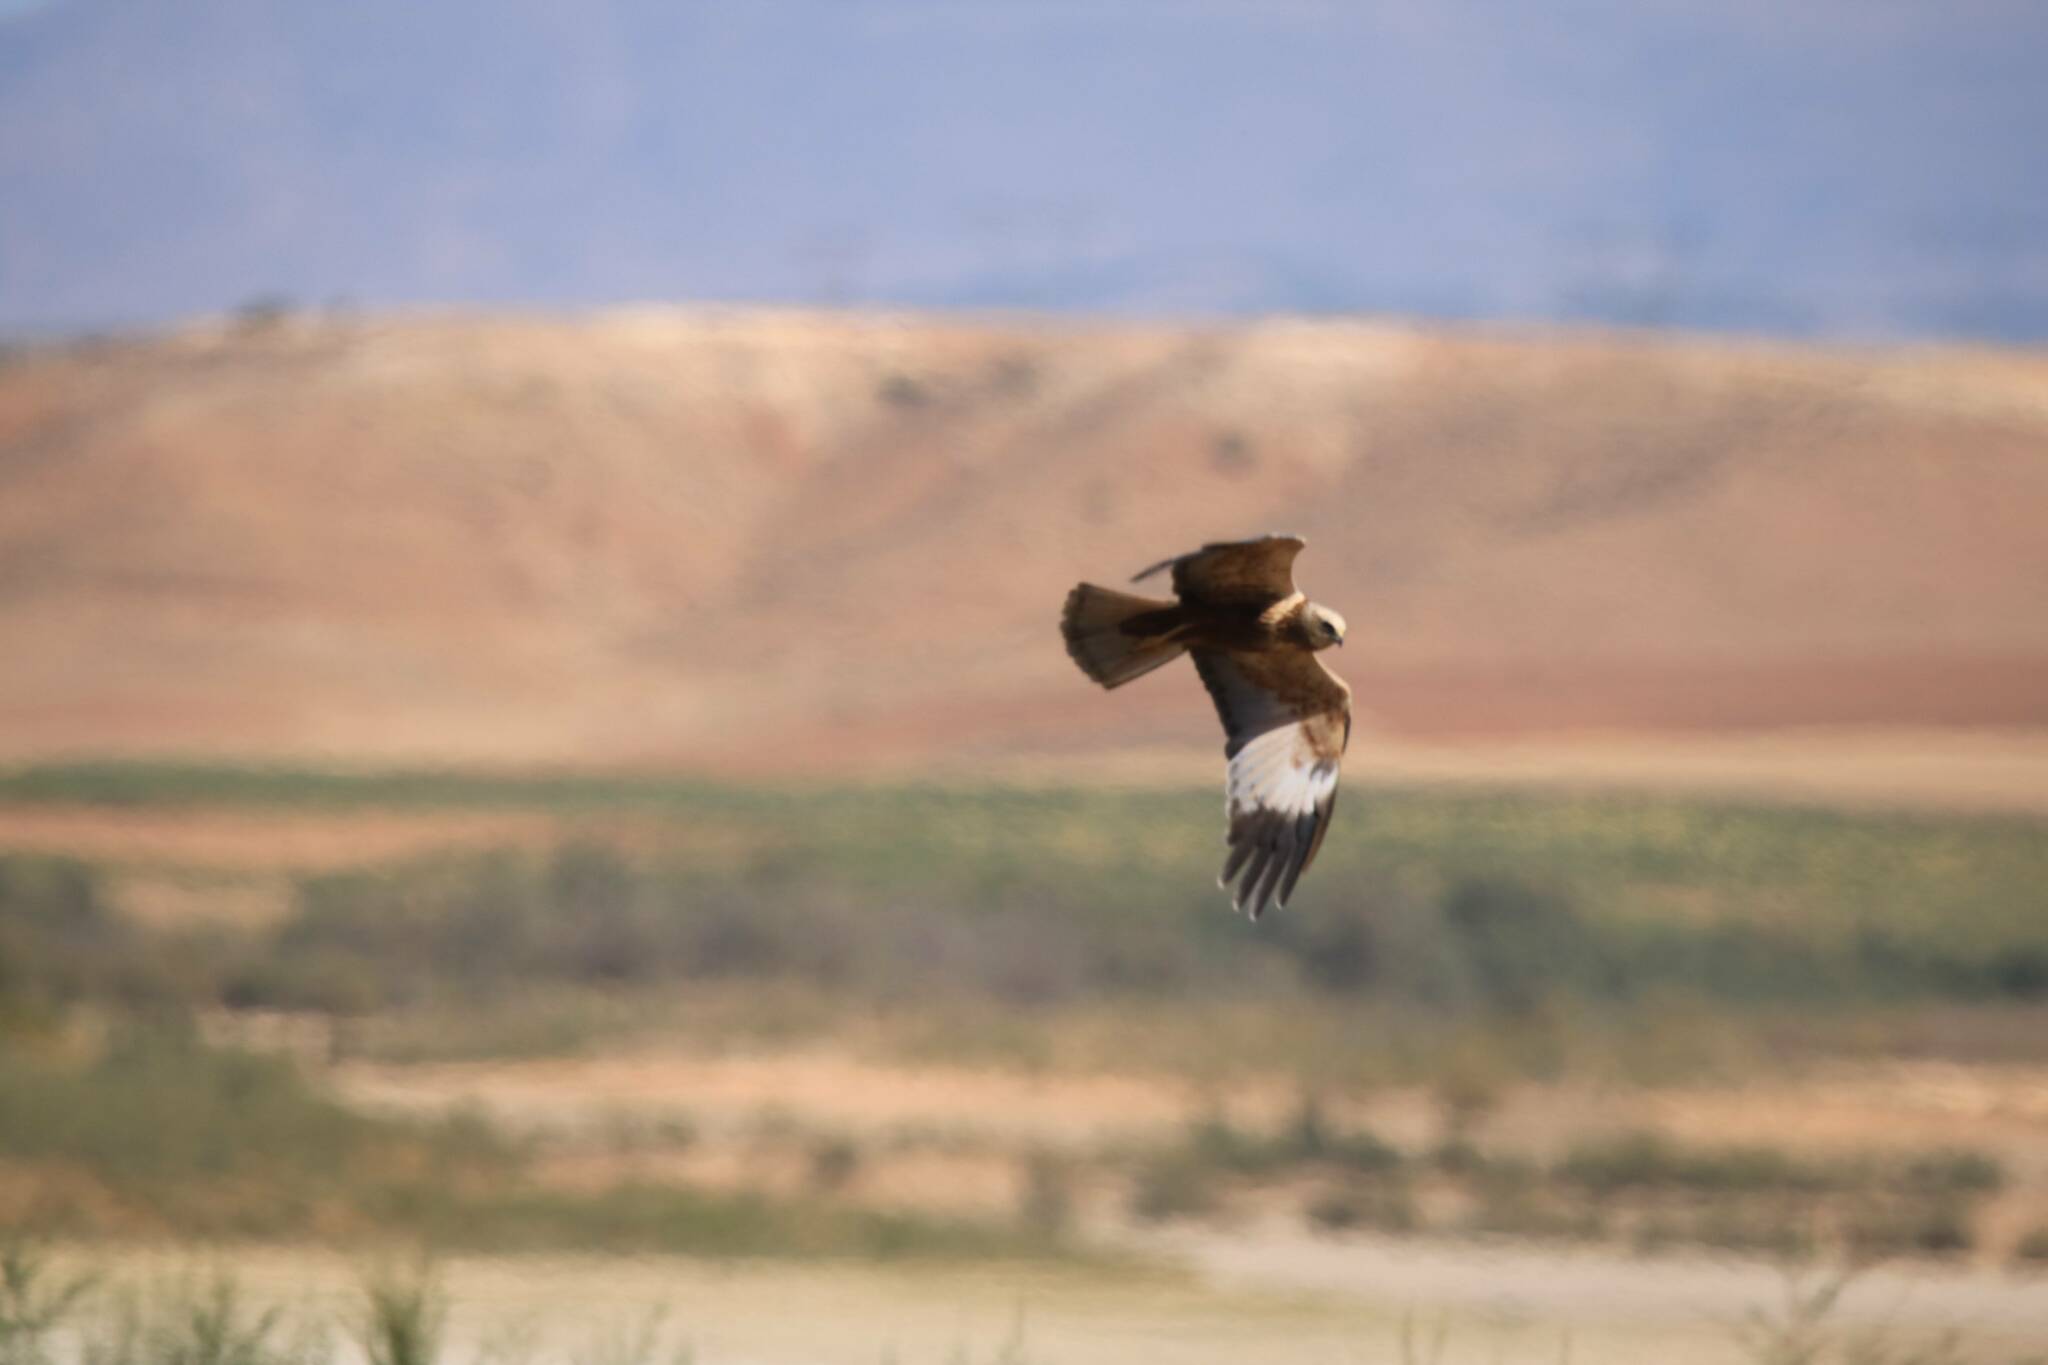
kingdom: Animalia
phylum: Chordata
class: Aves
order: Accipitriformes
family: Accipitridae
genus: Circus
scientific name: Circus aeruginosus
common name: Western marsh harrier
